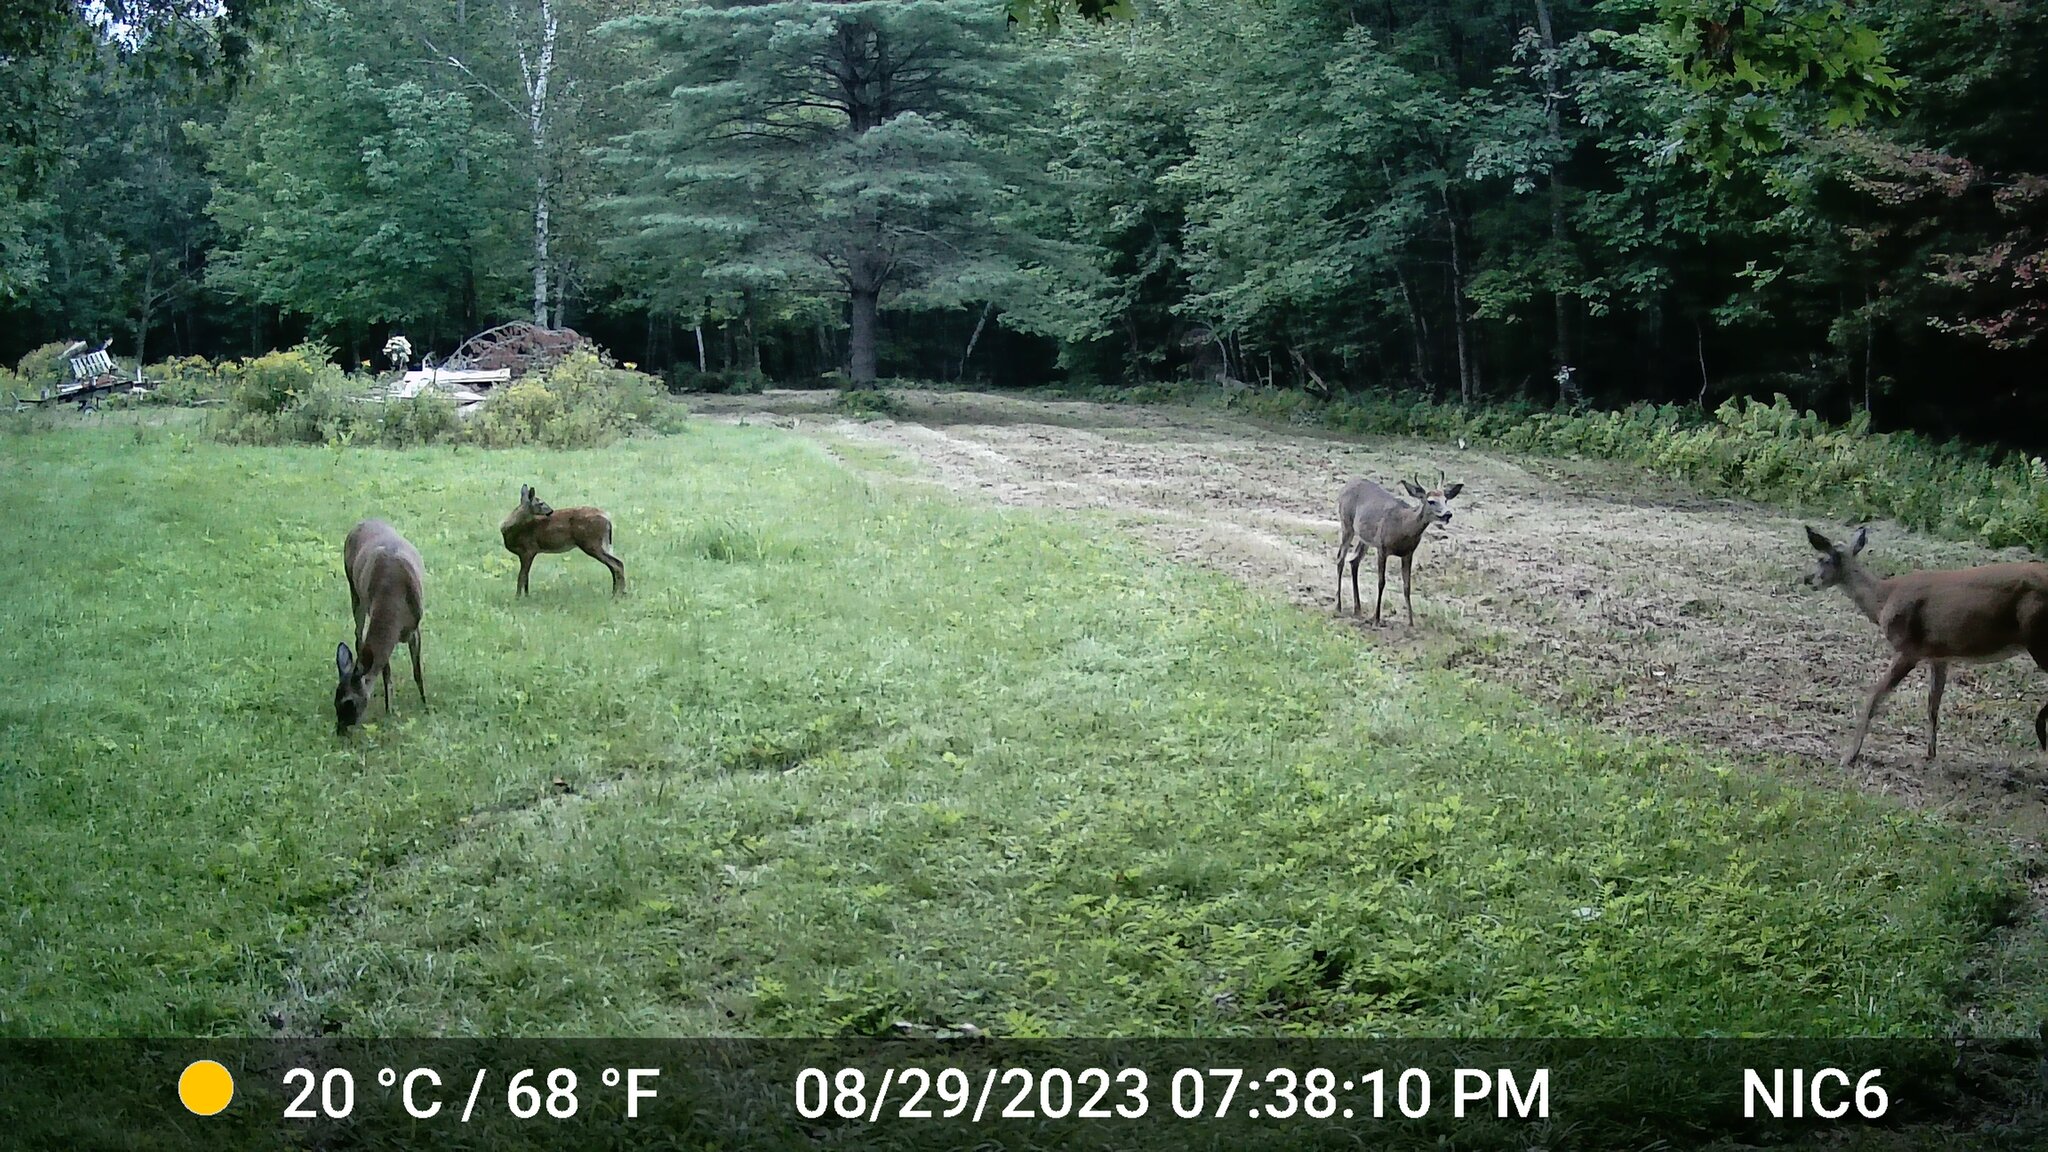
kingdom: Animalia
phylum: Chordata
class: Mammalia
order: Artiodactyla
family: Cervidae
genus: Odocoileus
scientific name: Odocoileus virginianus
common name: White-tailed deer
